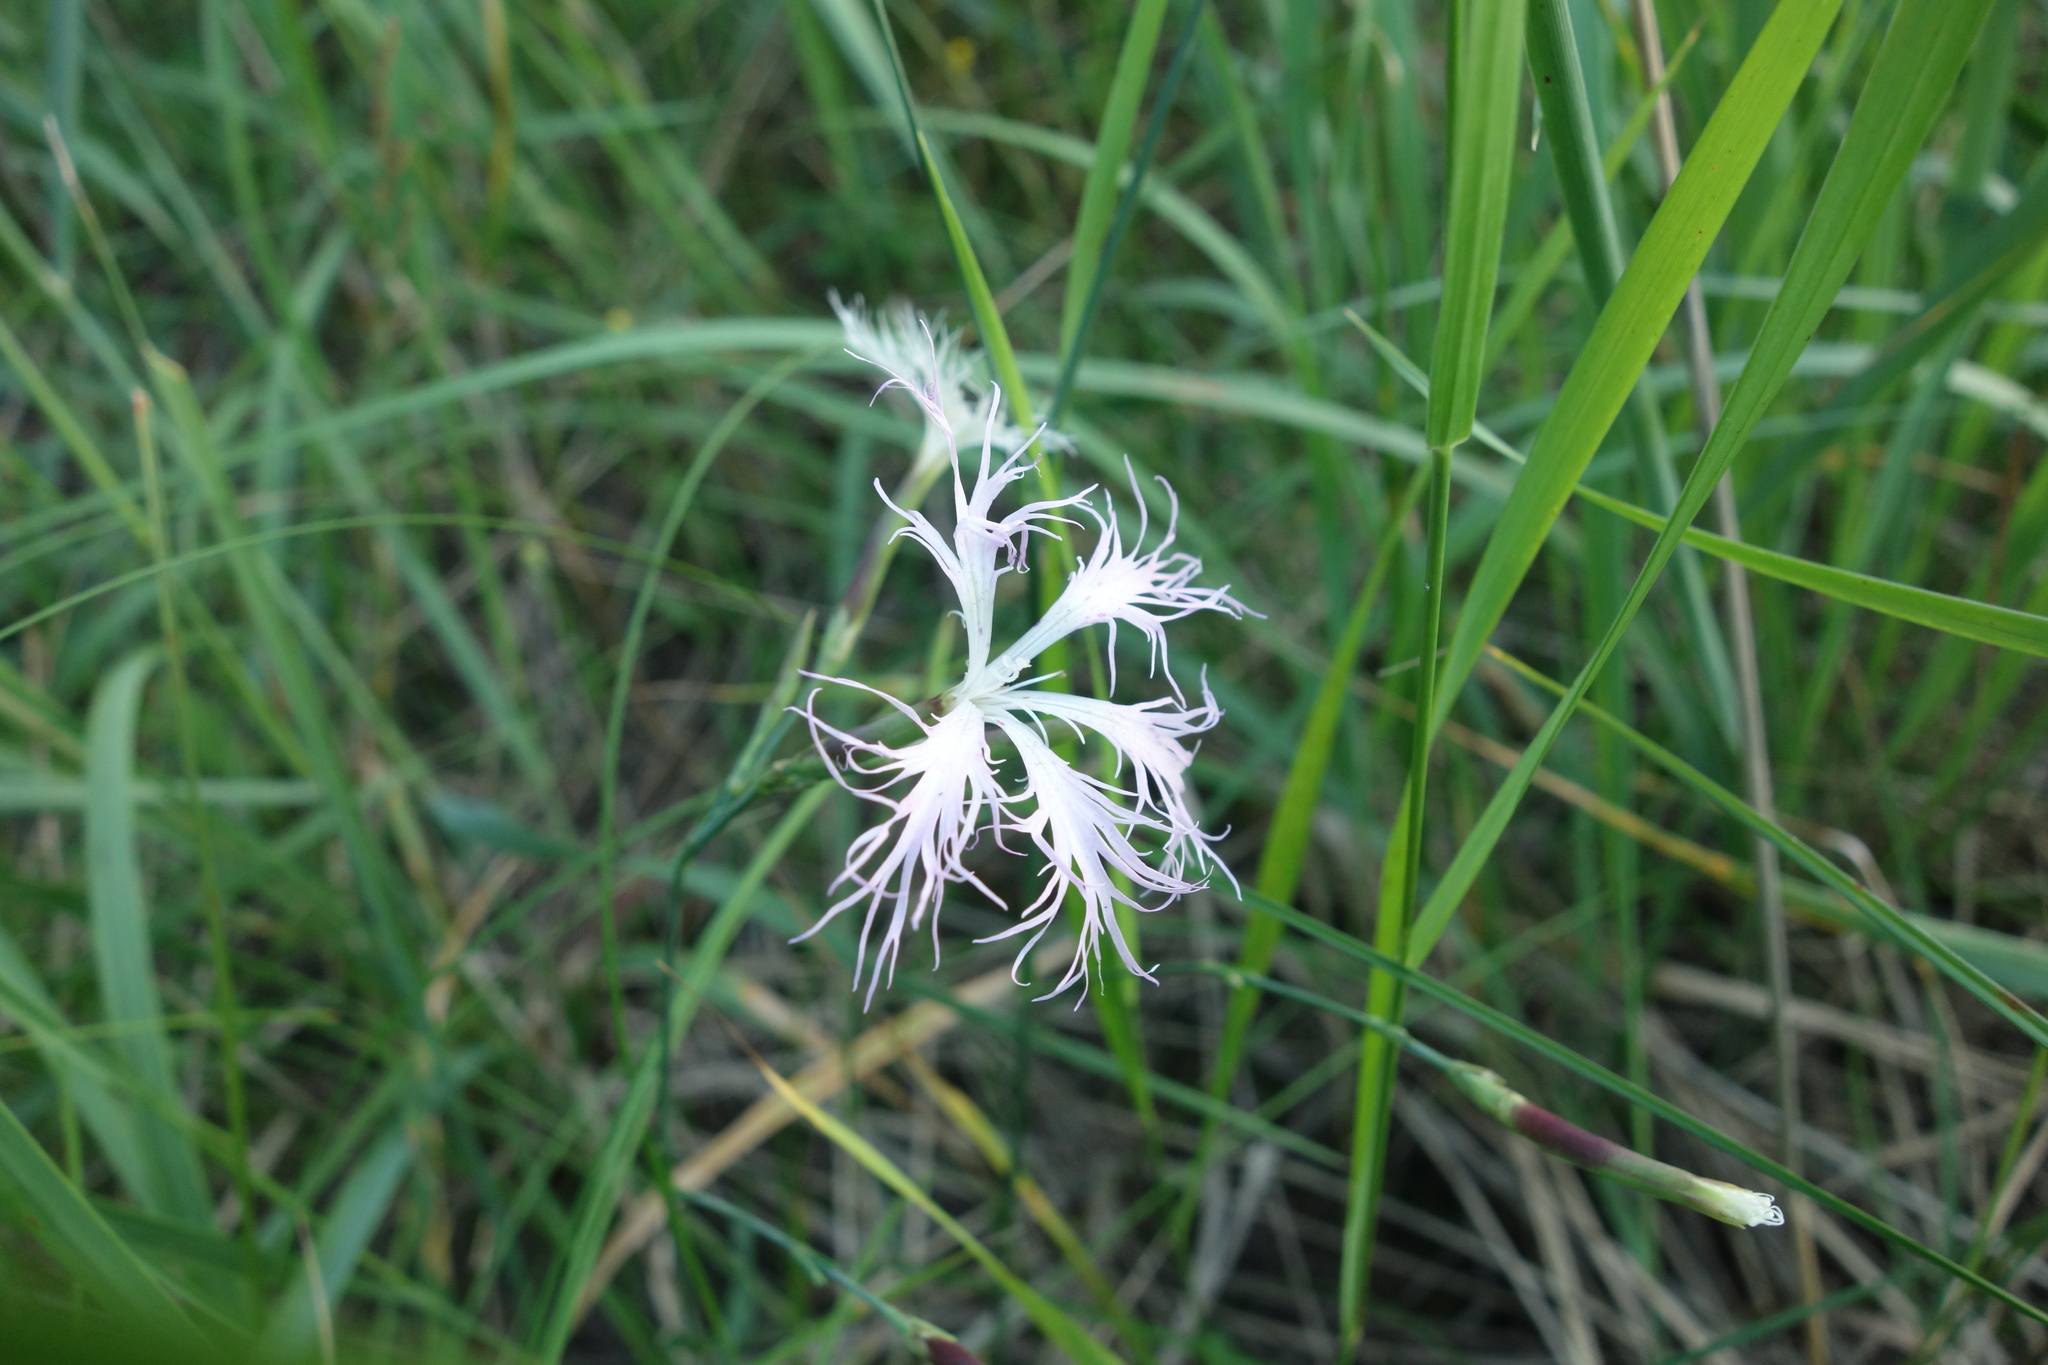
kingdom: Plantae
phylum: Tracheophyta
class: Magnoliopsida
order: Caryophyllales
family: Caryophyllaceae
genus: Dianthus
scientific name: Dianthus superbus
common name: Fringed pink
